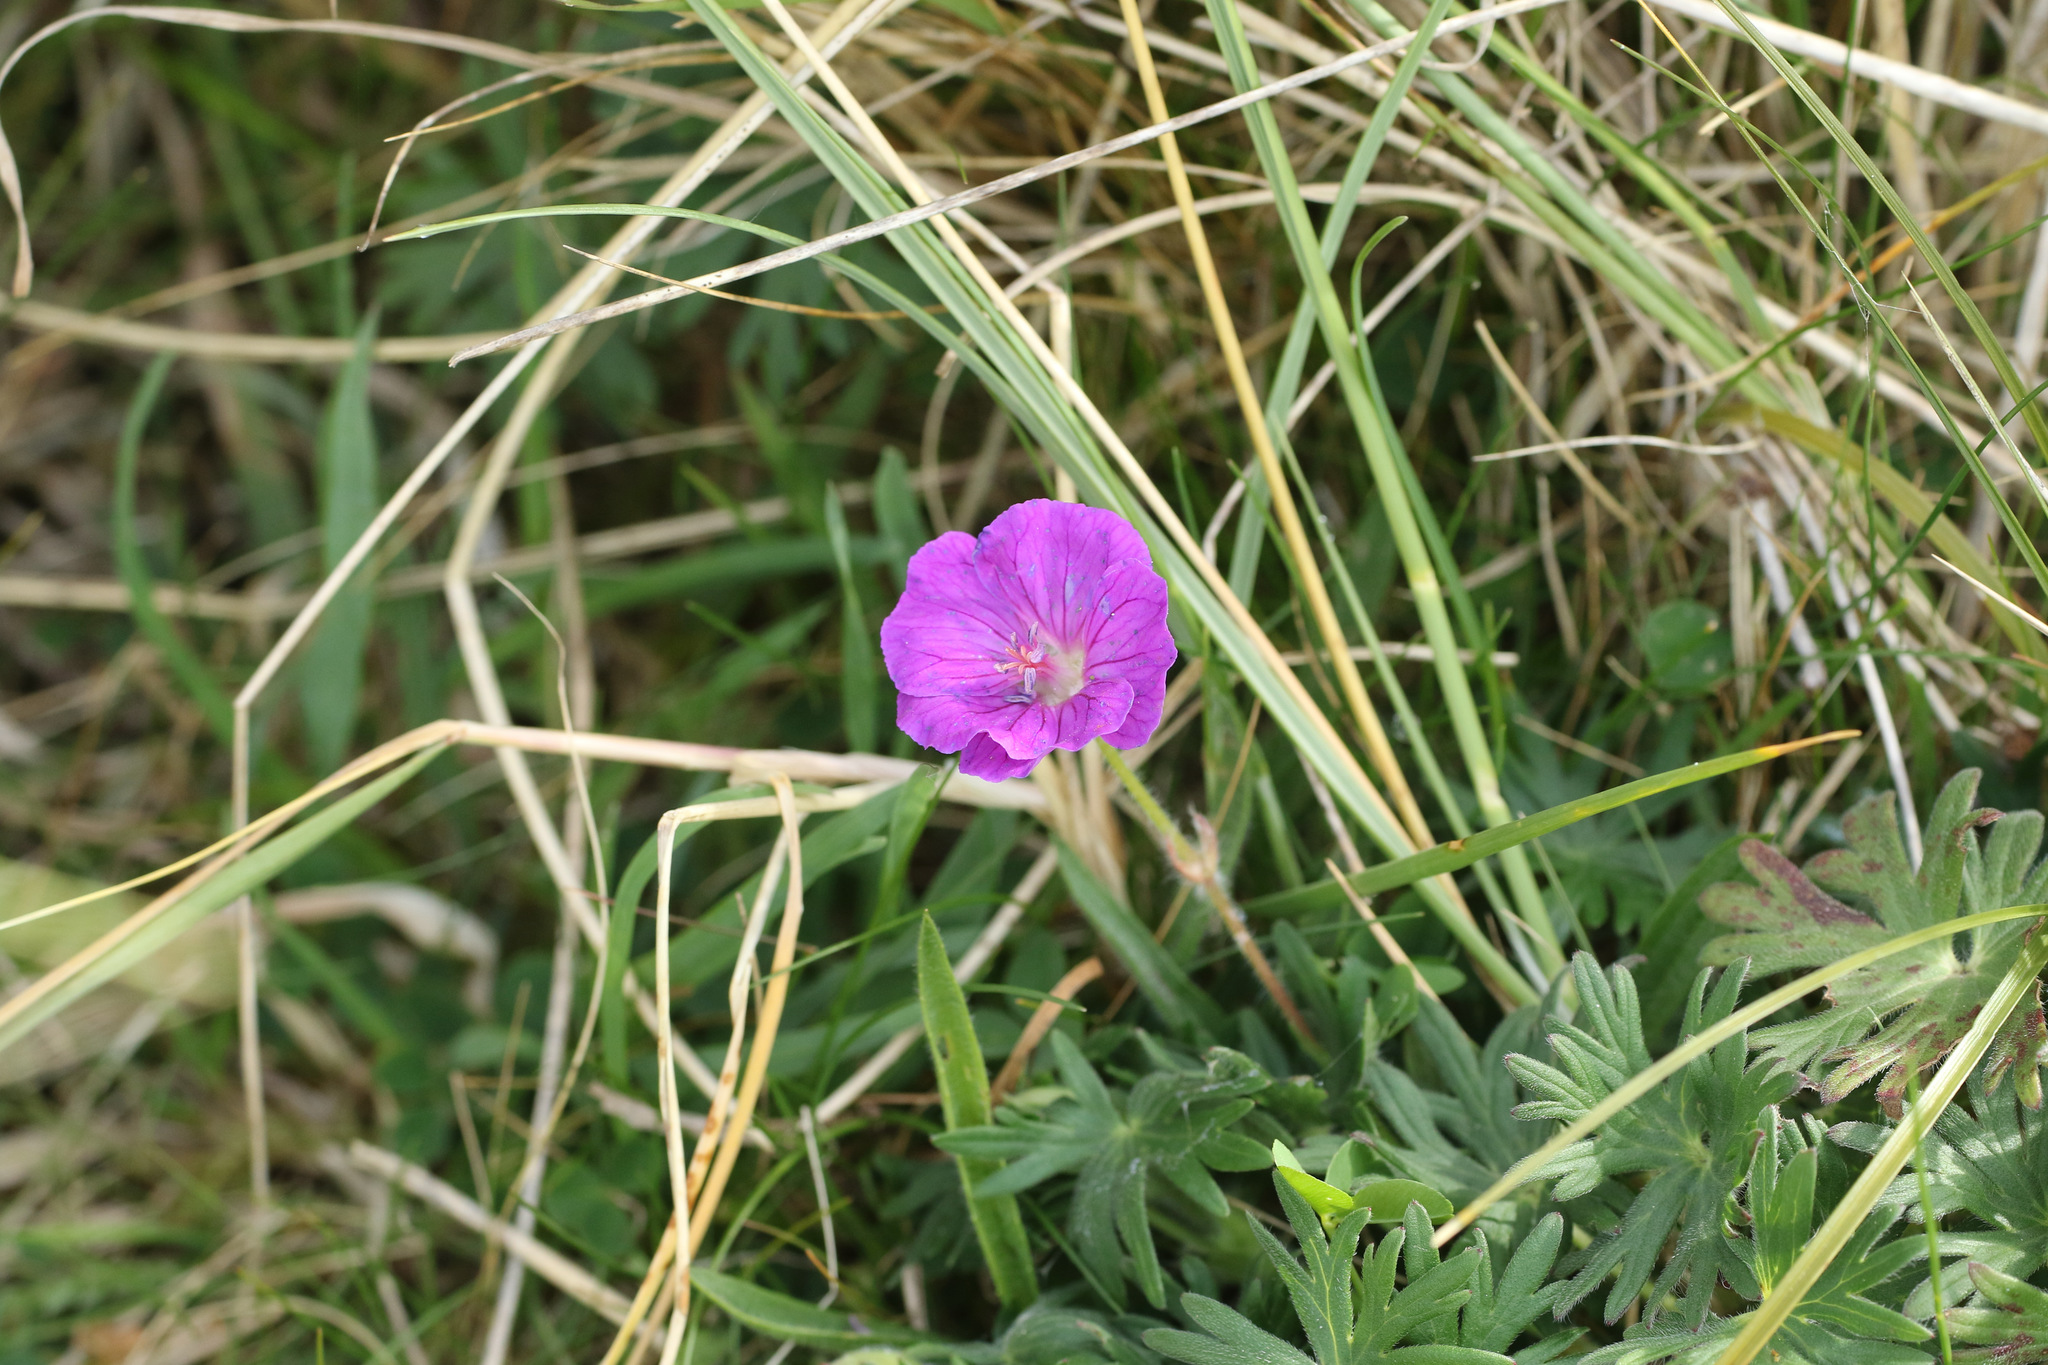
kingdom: Plantae
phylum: Tracheophyta
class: Magnoliopsida
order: Geraniales
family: Geraniaceae
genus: Geranium
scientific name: Geranium sanguineum
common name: Bloody crane's-bill
